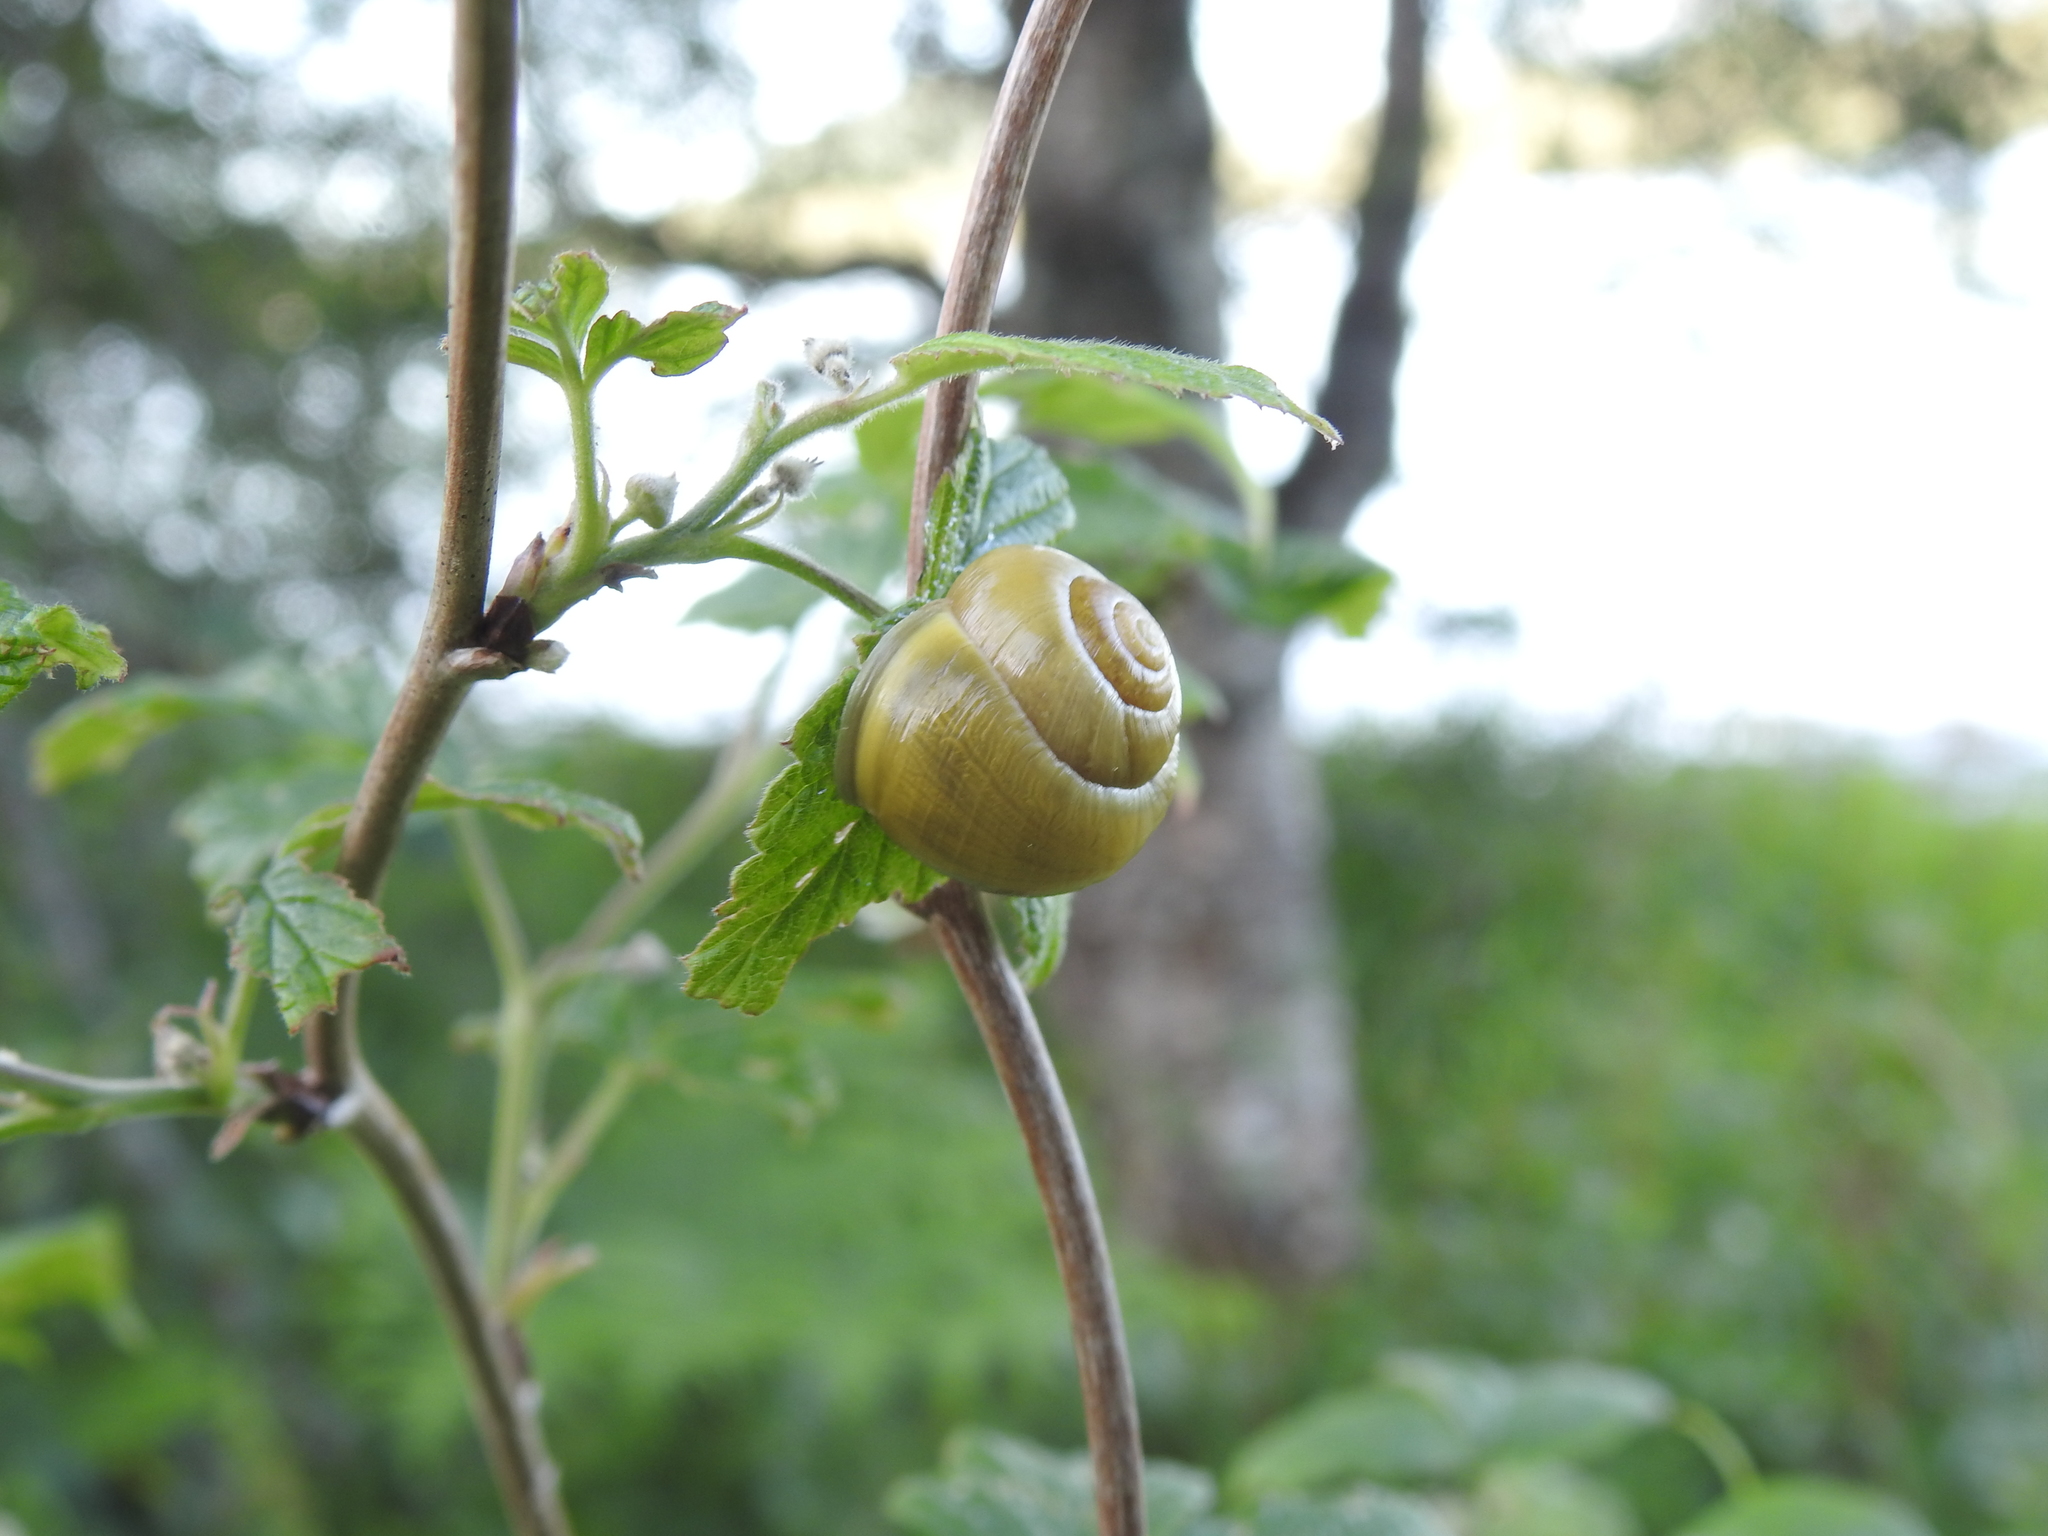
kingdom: Animalia
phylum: Mollusca
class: Gastropoda
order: Stylommatophora
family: Helicidae
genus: Cepaea
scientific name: Cepaea hortensis
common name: White-lip gardensnail
